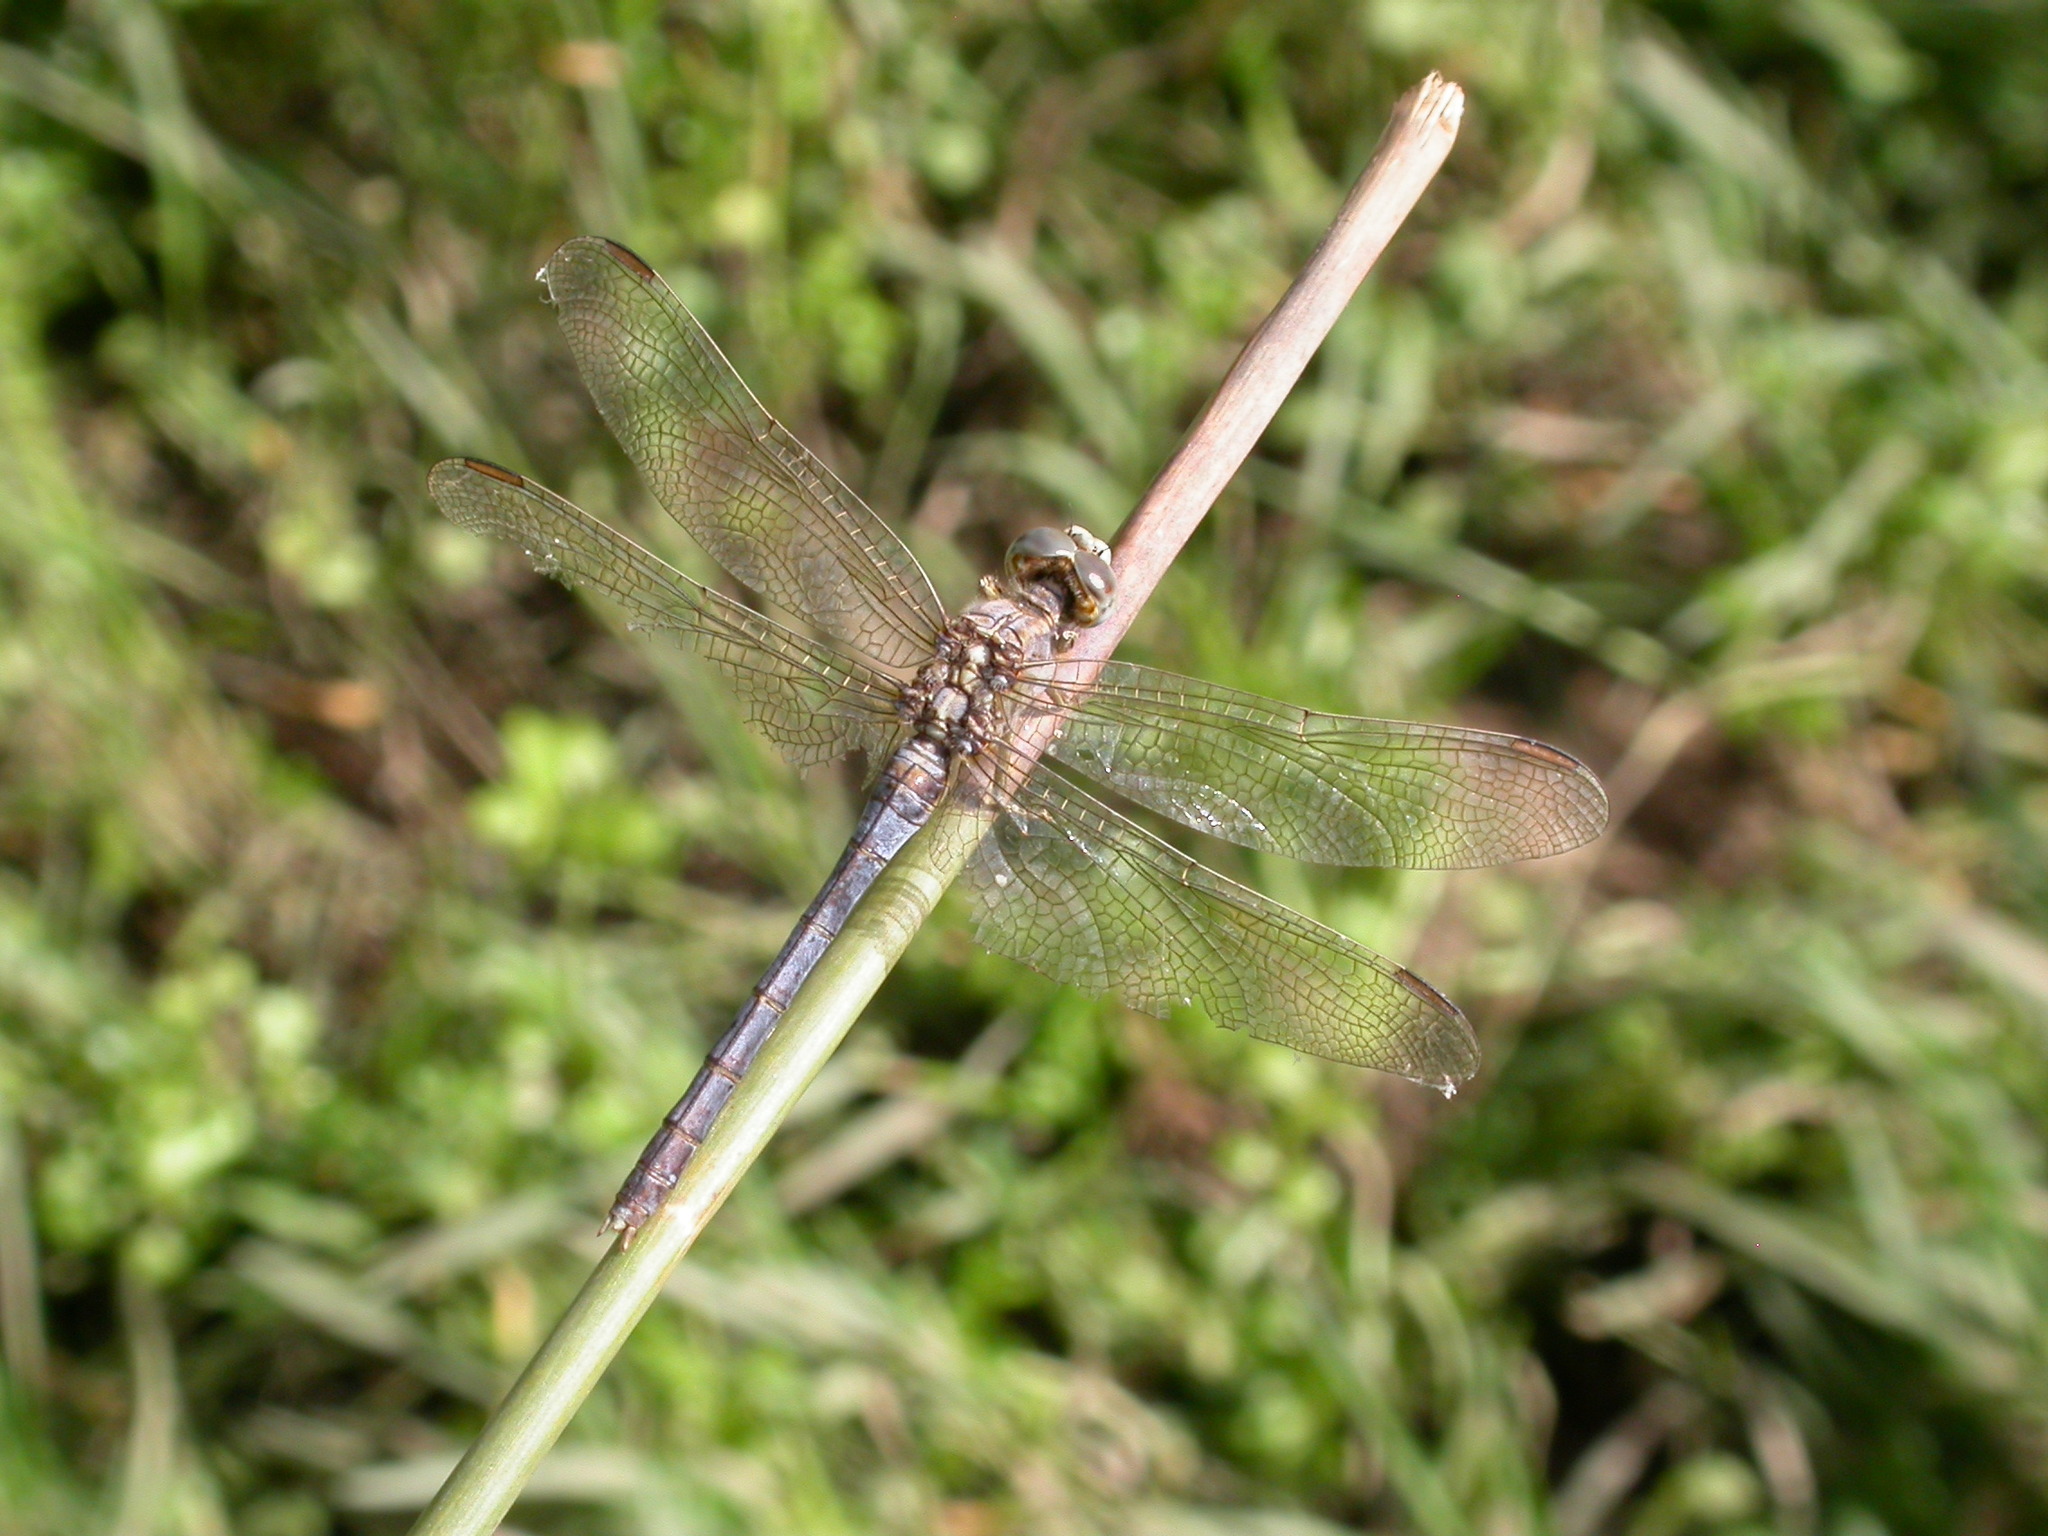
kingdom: Animalia
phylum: Arthropoda
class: Insecta
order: Odonata
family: Libellulidae
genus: Orthetrum
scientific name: Orthetrum coerulescens
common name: Keeled skimmer
